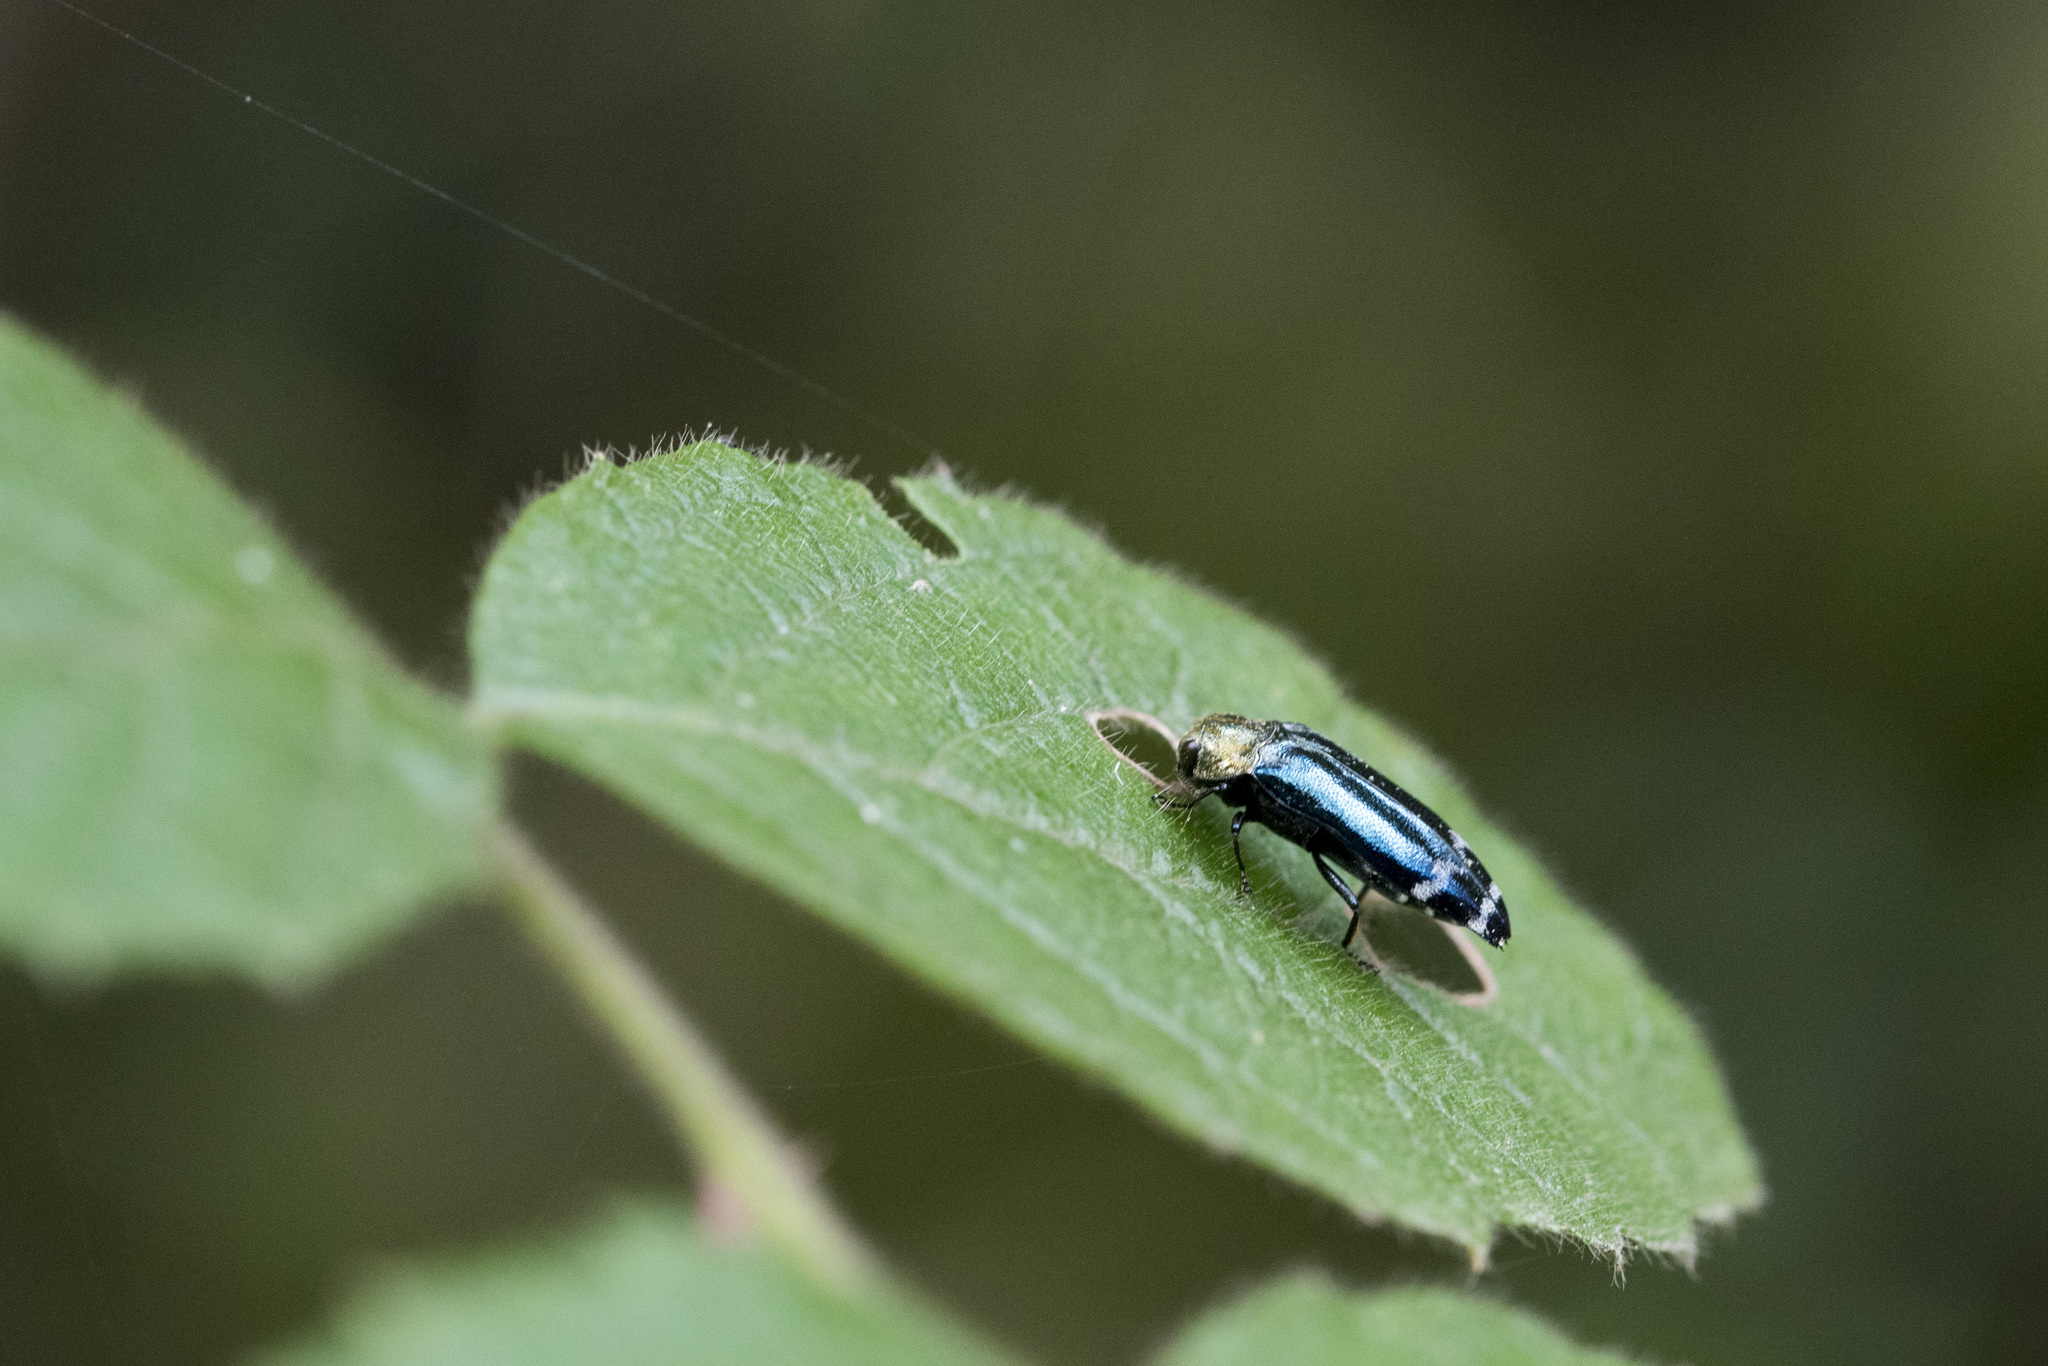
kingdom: Animalia
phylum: Arthropoda
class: Insecta
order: Coleoptera
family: Buprestidae
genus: Coraebus
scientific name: Coraebus cloueti
